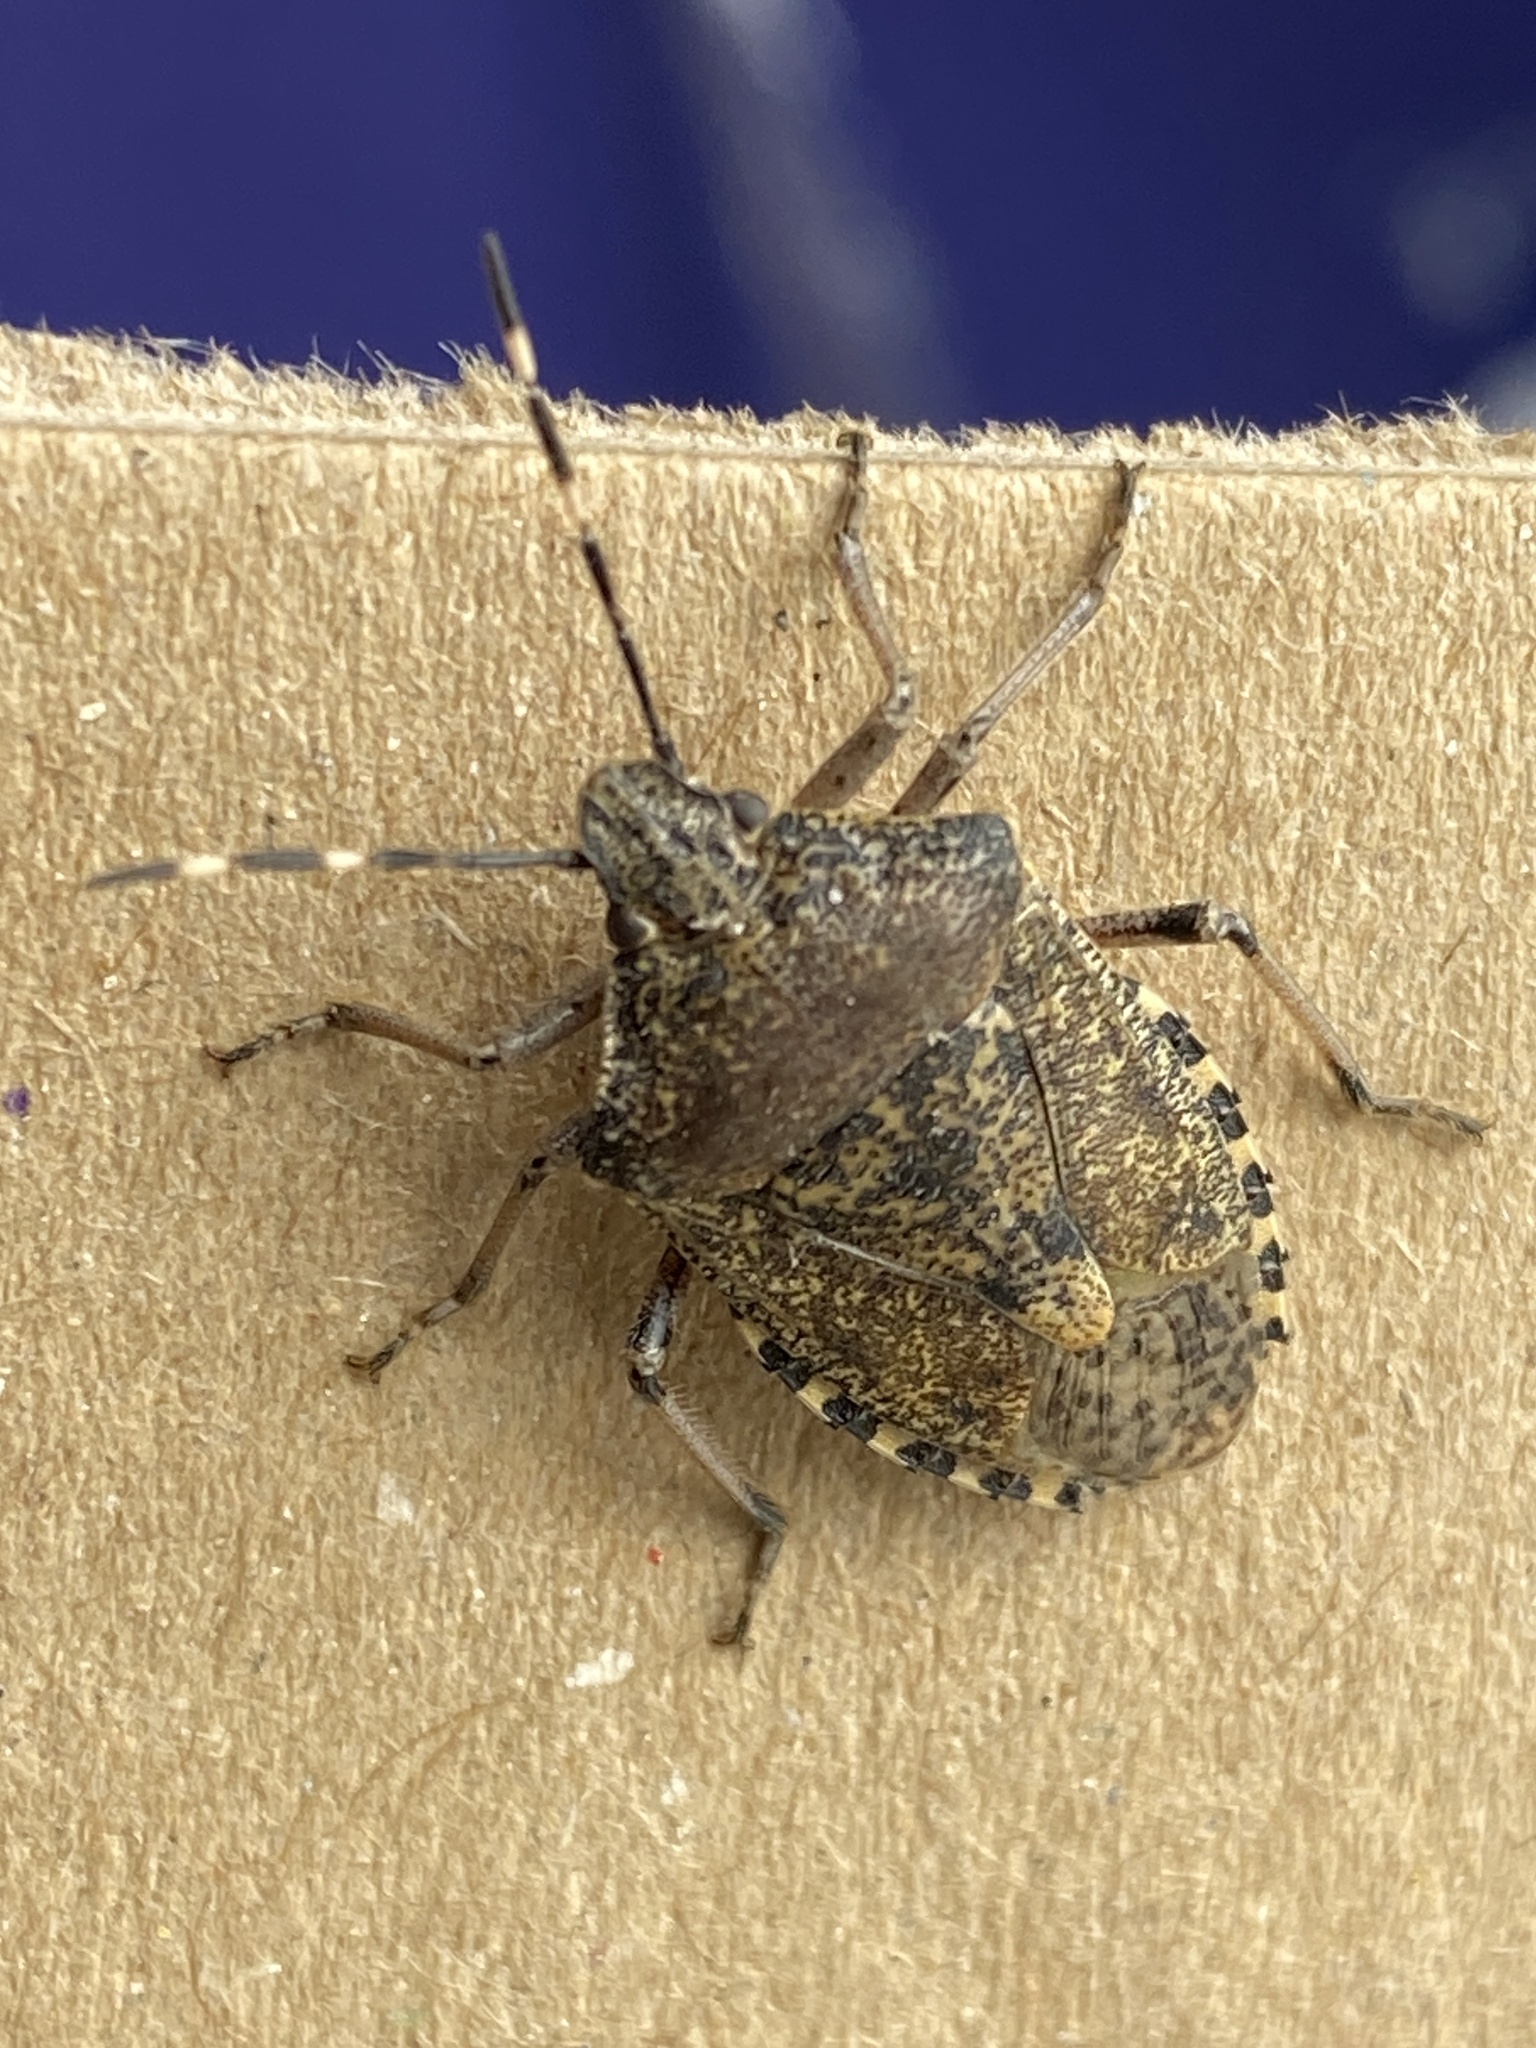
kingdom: Animalia
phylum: Arthropoda
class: Insecta
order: Hemiptera
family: Pentatomidae
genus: Rhaphigaster
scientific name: Rhaphigaster nebulosa
